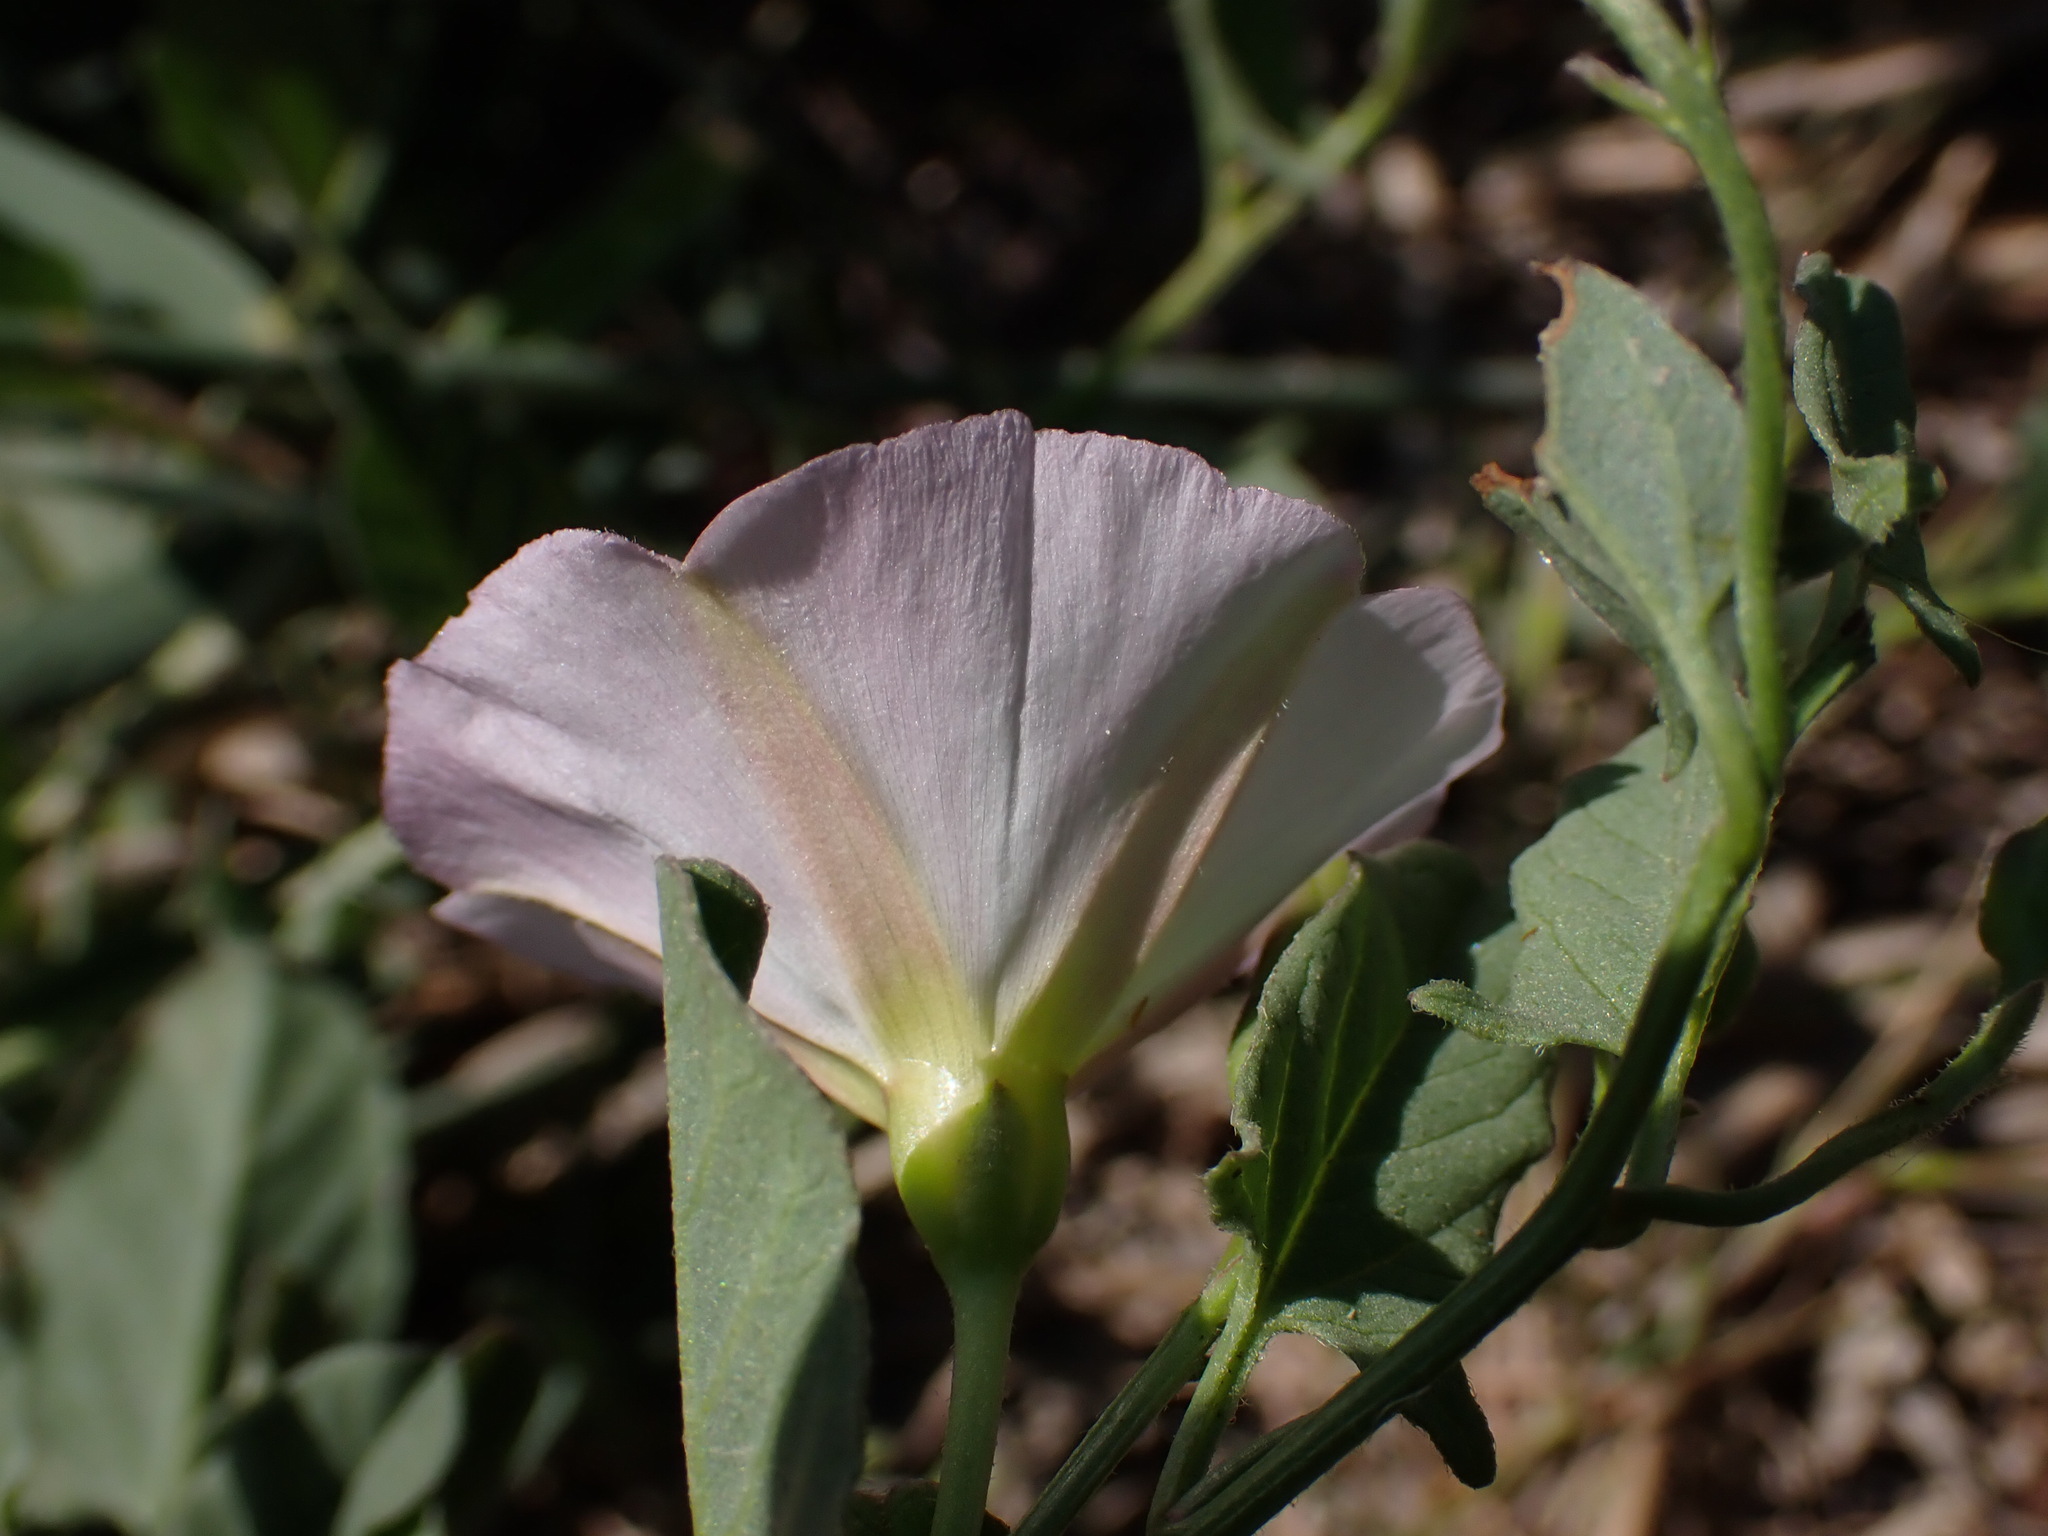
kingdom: Plantae
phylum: Tracheophyta
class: Magnoliopsida
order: Solanales
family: Convolvulaceae
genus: Convolvulus
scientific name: Convolvulus arvensis
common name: Field bindweed
